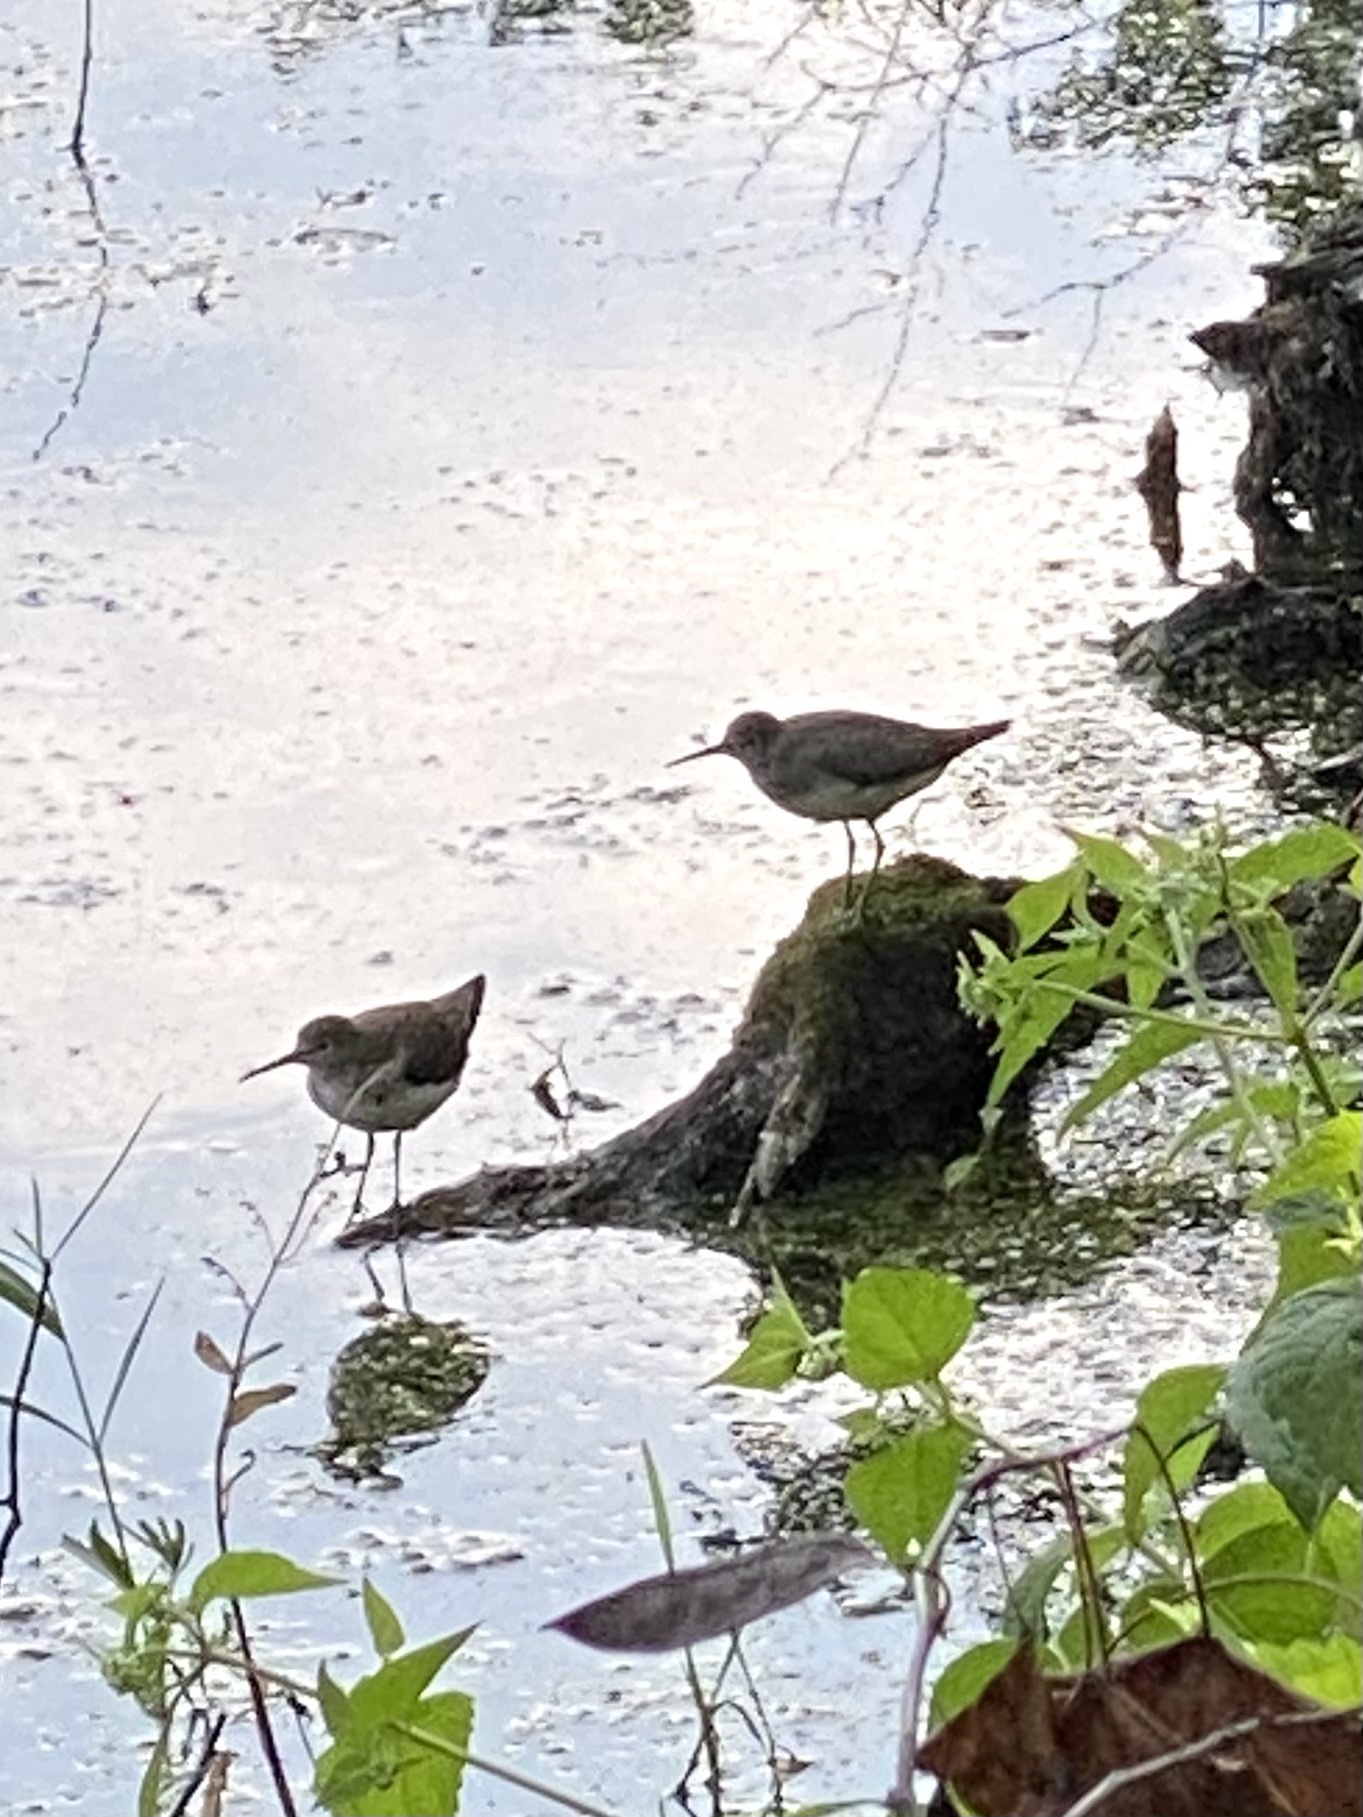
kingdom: Animalia
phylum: Chordata
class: Aves
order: Charadriiformes
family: Scolopacidae
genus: Tringa
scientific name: Tringa solitaria
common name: Solitary sandpiper
